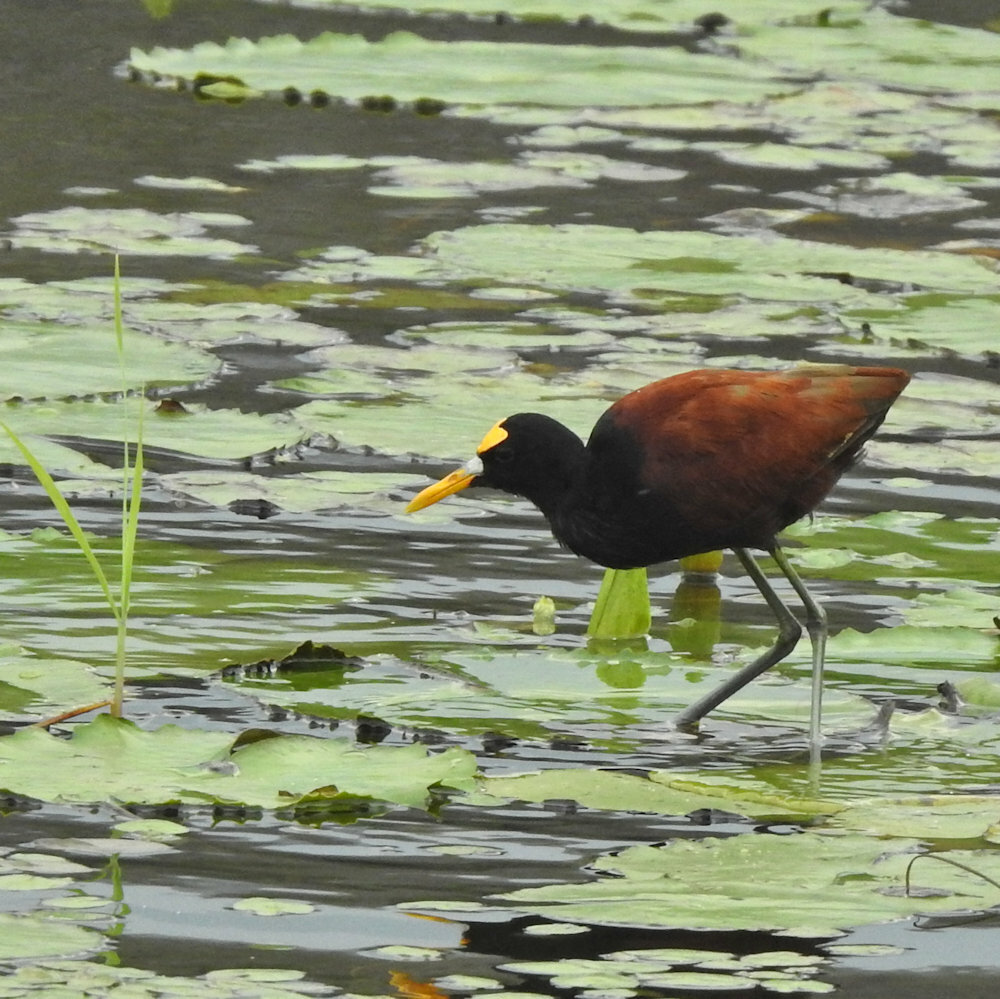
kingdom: Animalia
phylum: Chordata
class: Aves
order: Charadriiformes
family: Jacanidae
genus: Jacana
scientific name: Jacana spinosa
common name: Northern jacana
